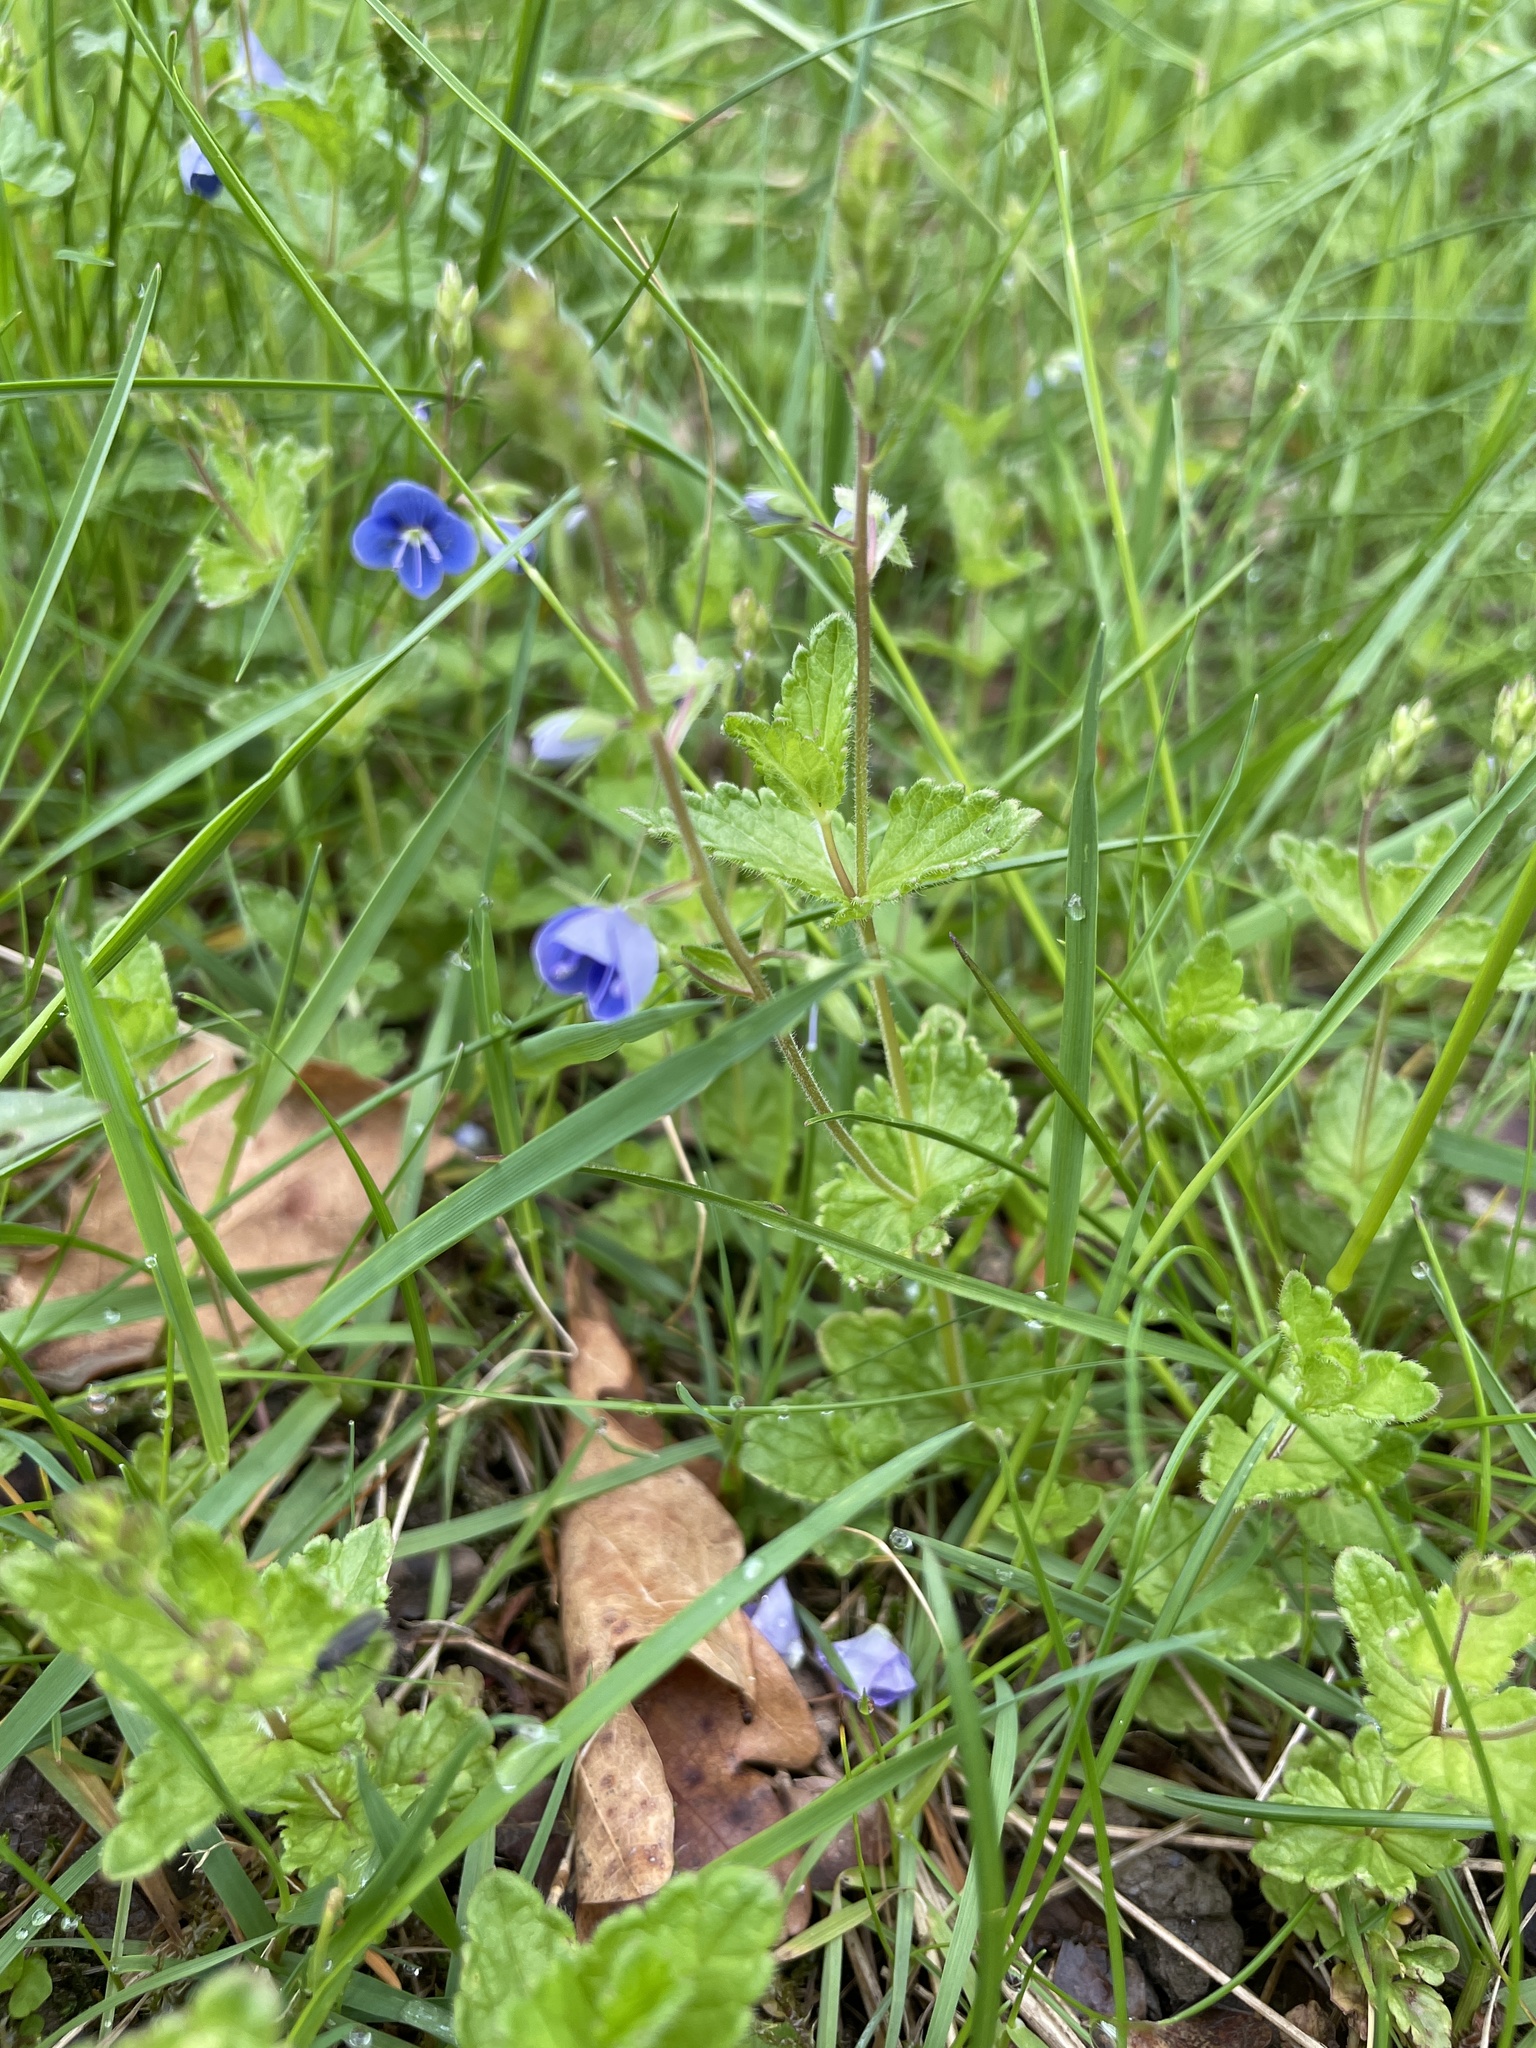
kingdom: Plantae
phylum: Tracheophyta
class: Magnoliopsida
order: Lamiales
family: Plantaginaceae
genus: Veronica
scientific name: Veronica chamaedrys
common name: Germander speedwell
